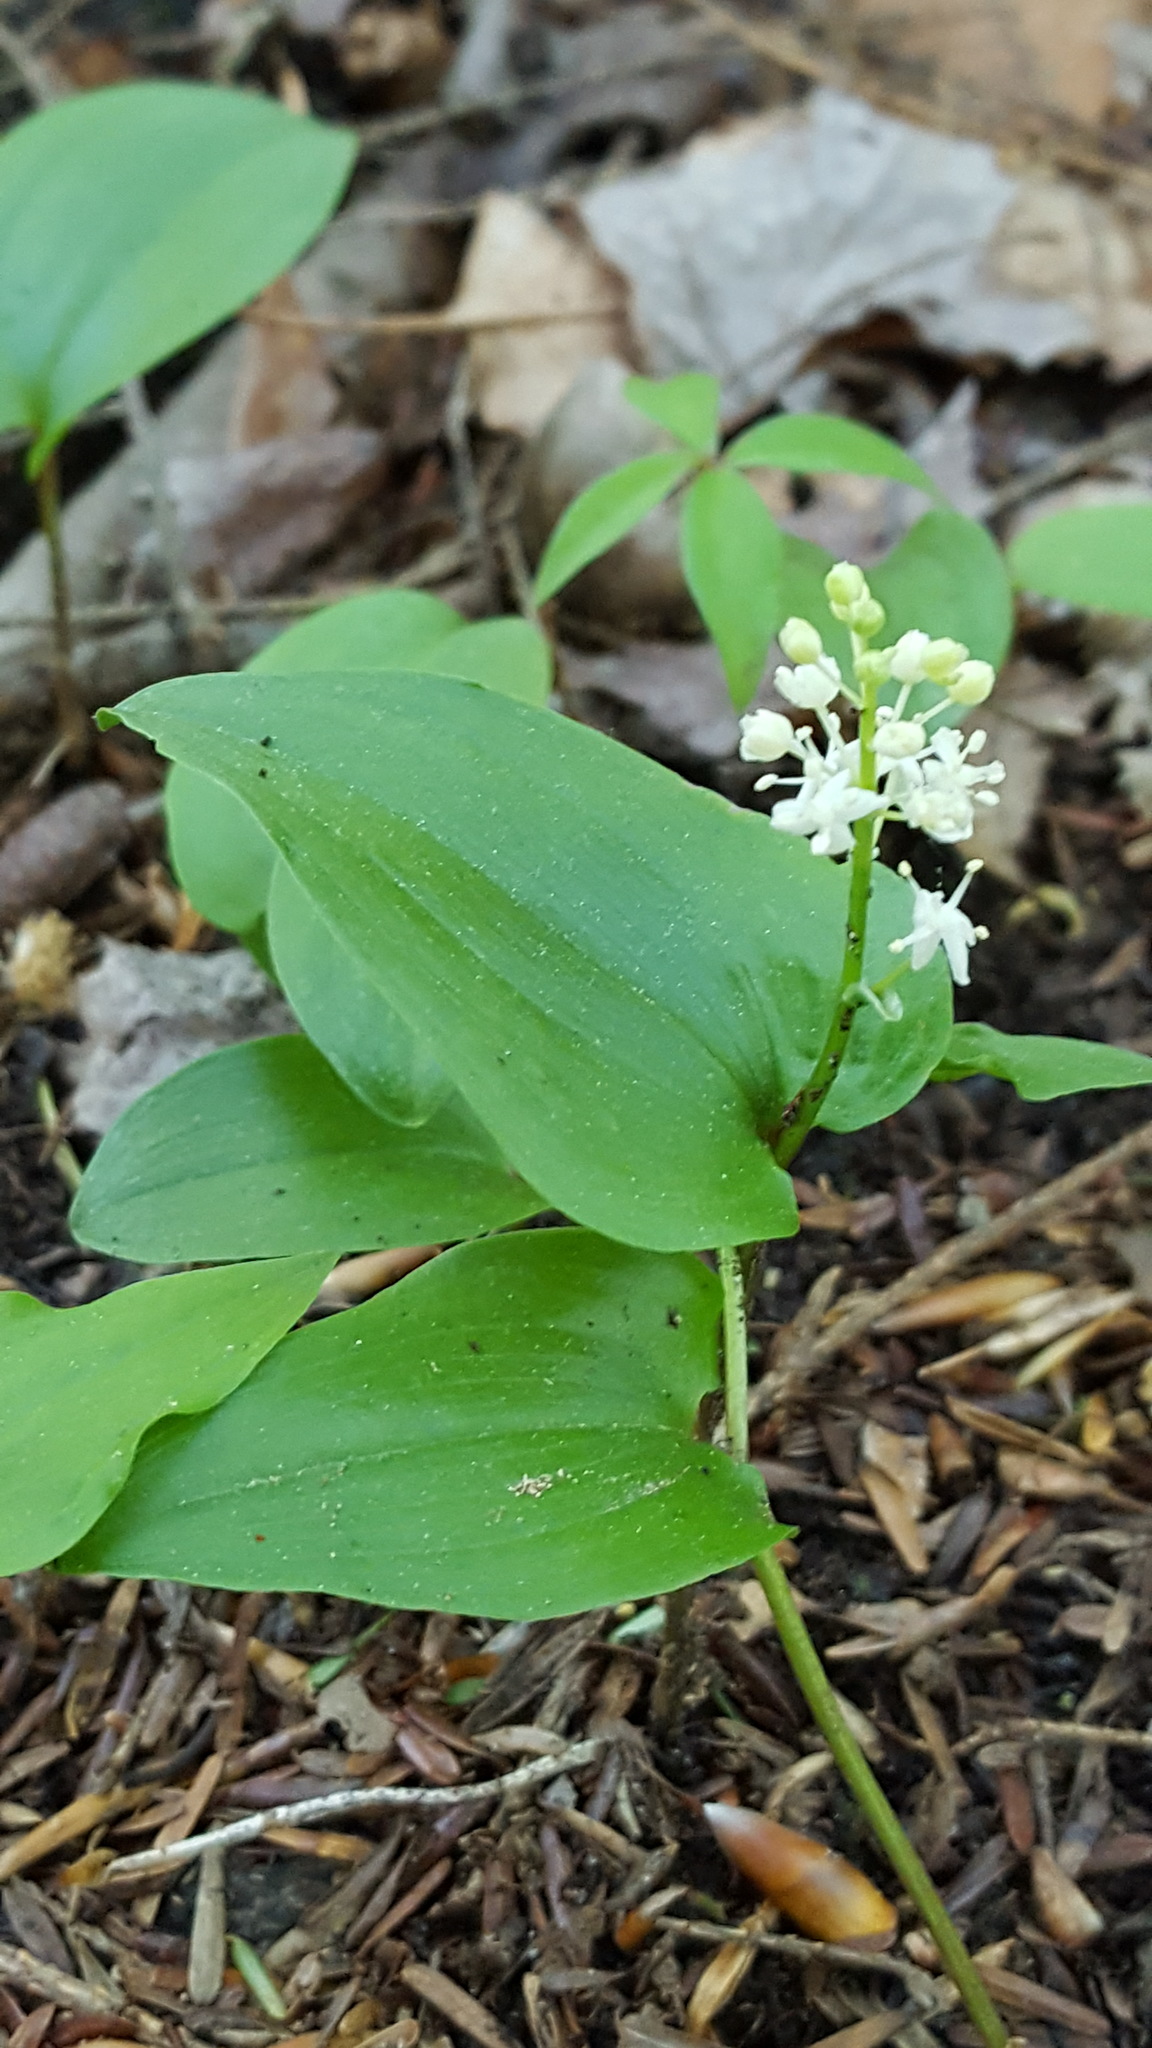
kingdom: Plantae
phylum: Tracheophyta
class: Liliopsida
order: Asparagales
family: Asparagaceae
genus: Maianthemum
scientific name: Maianthemum canadense
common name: False lily-of-the-valley
